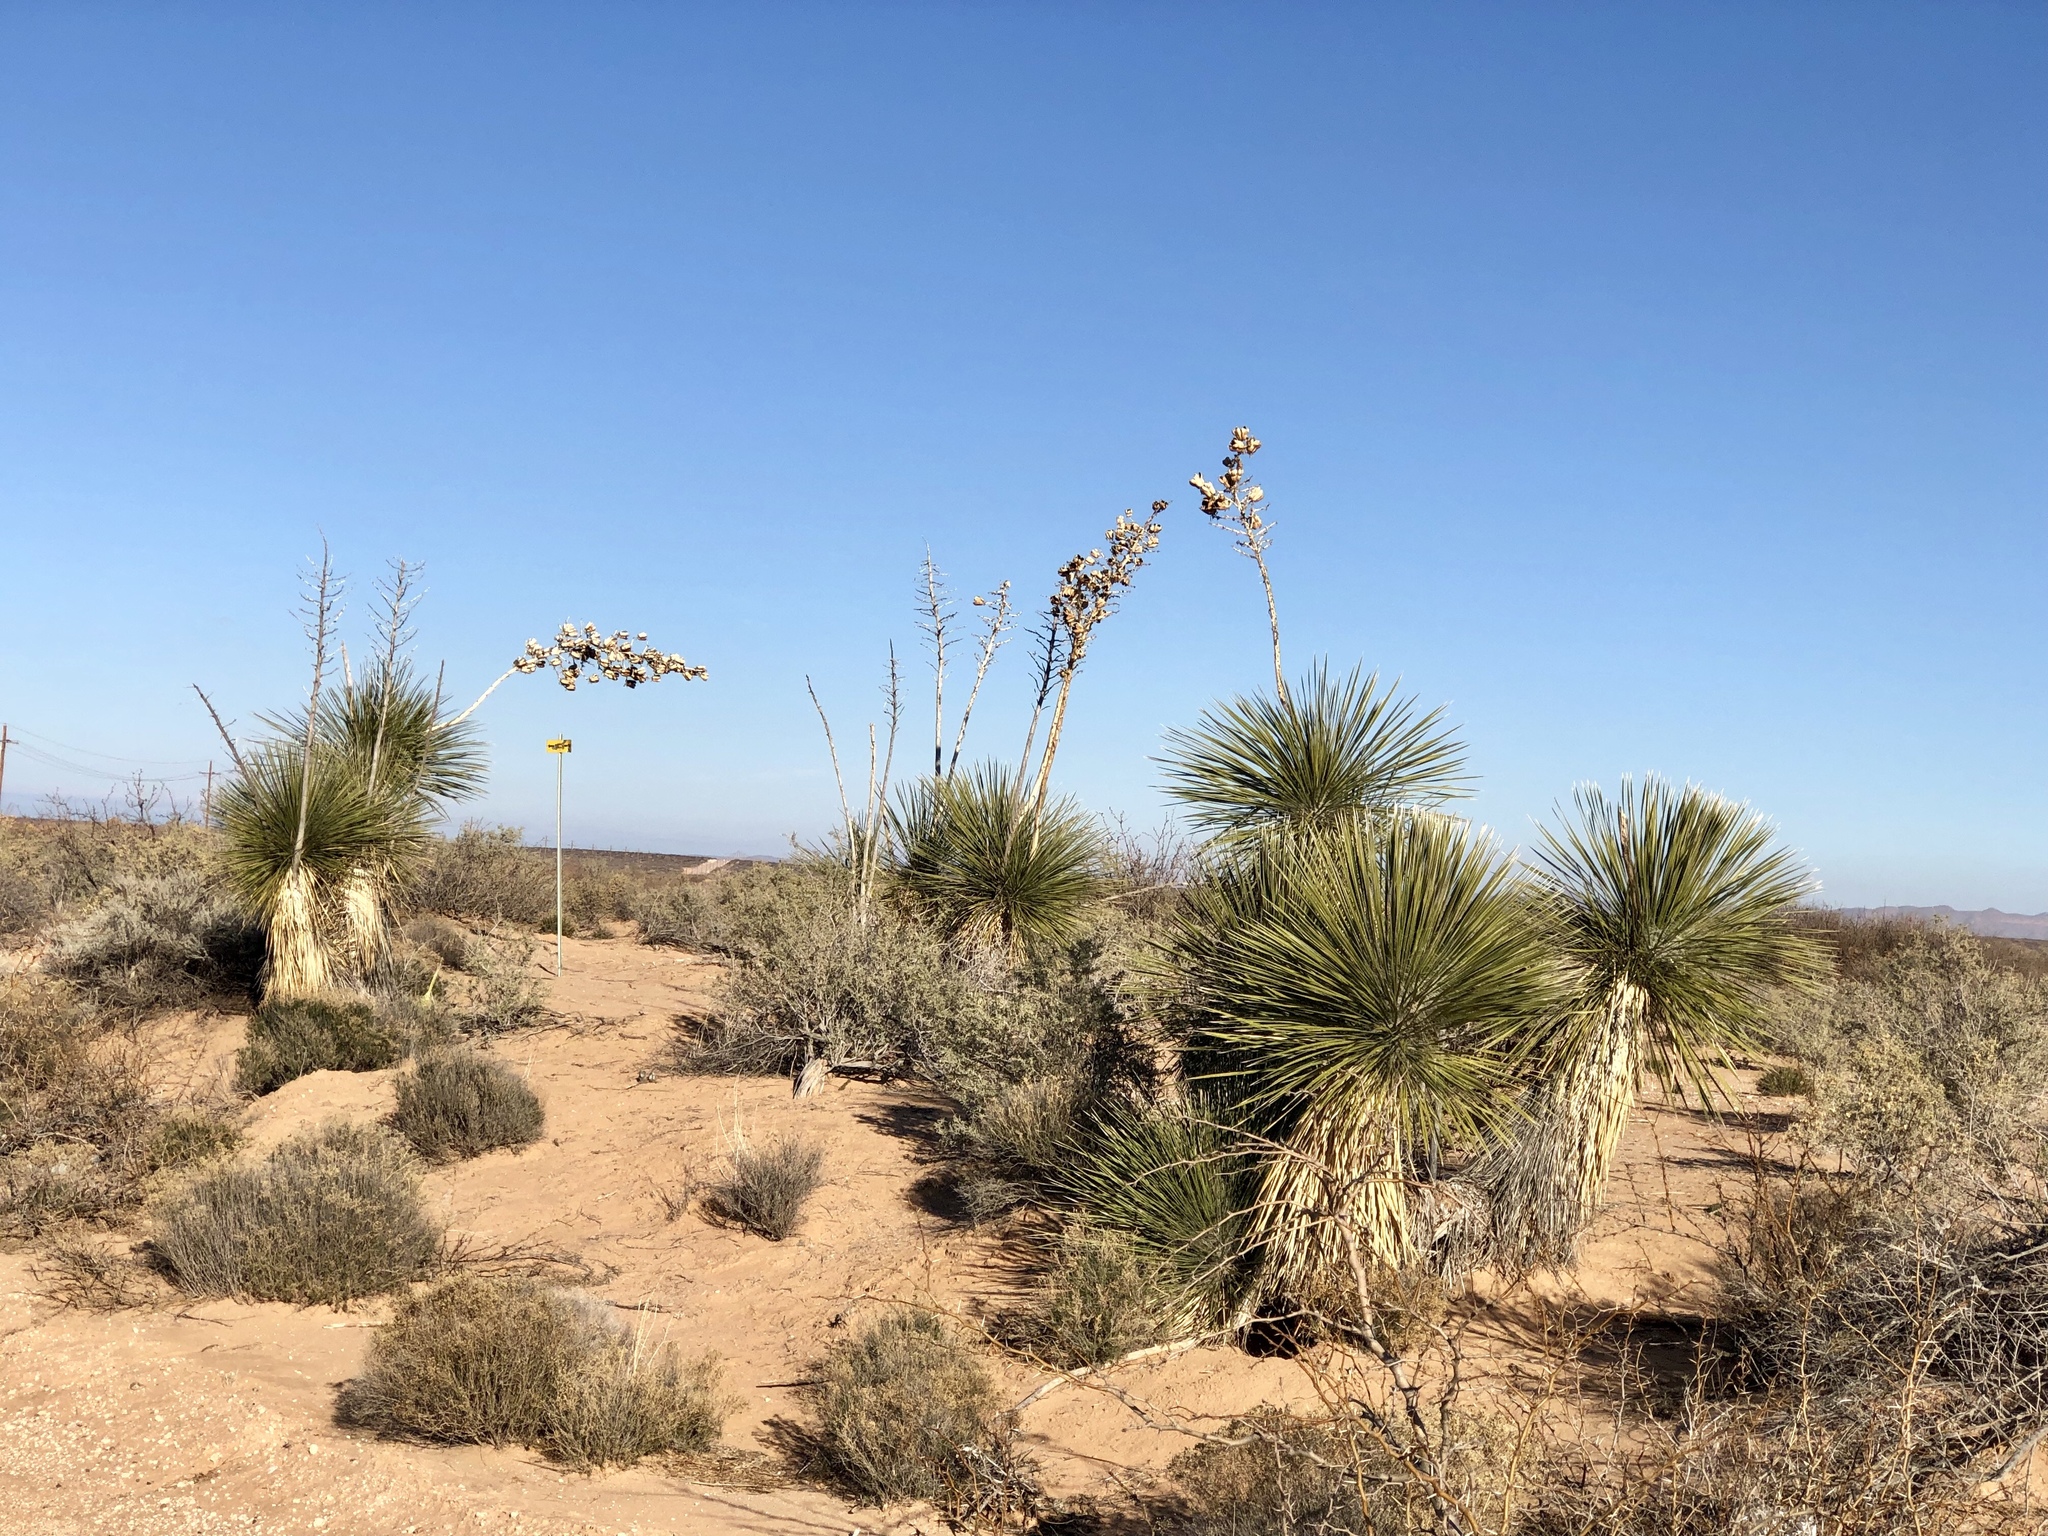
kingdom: Plantae
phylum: Tracheophyta
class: Liliopsida
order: Asparagales
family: Asparagaceae
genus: Yucca
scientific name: Yucca elata
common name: Palmella
